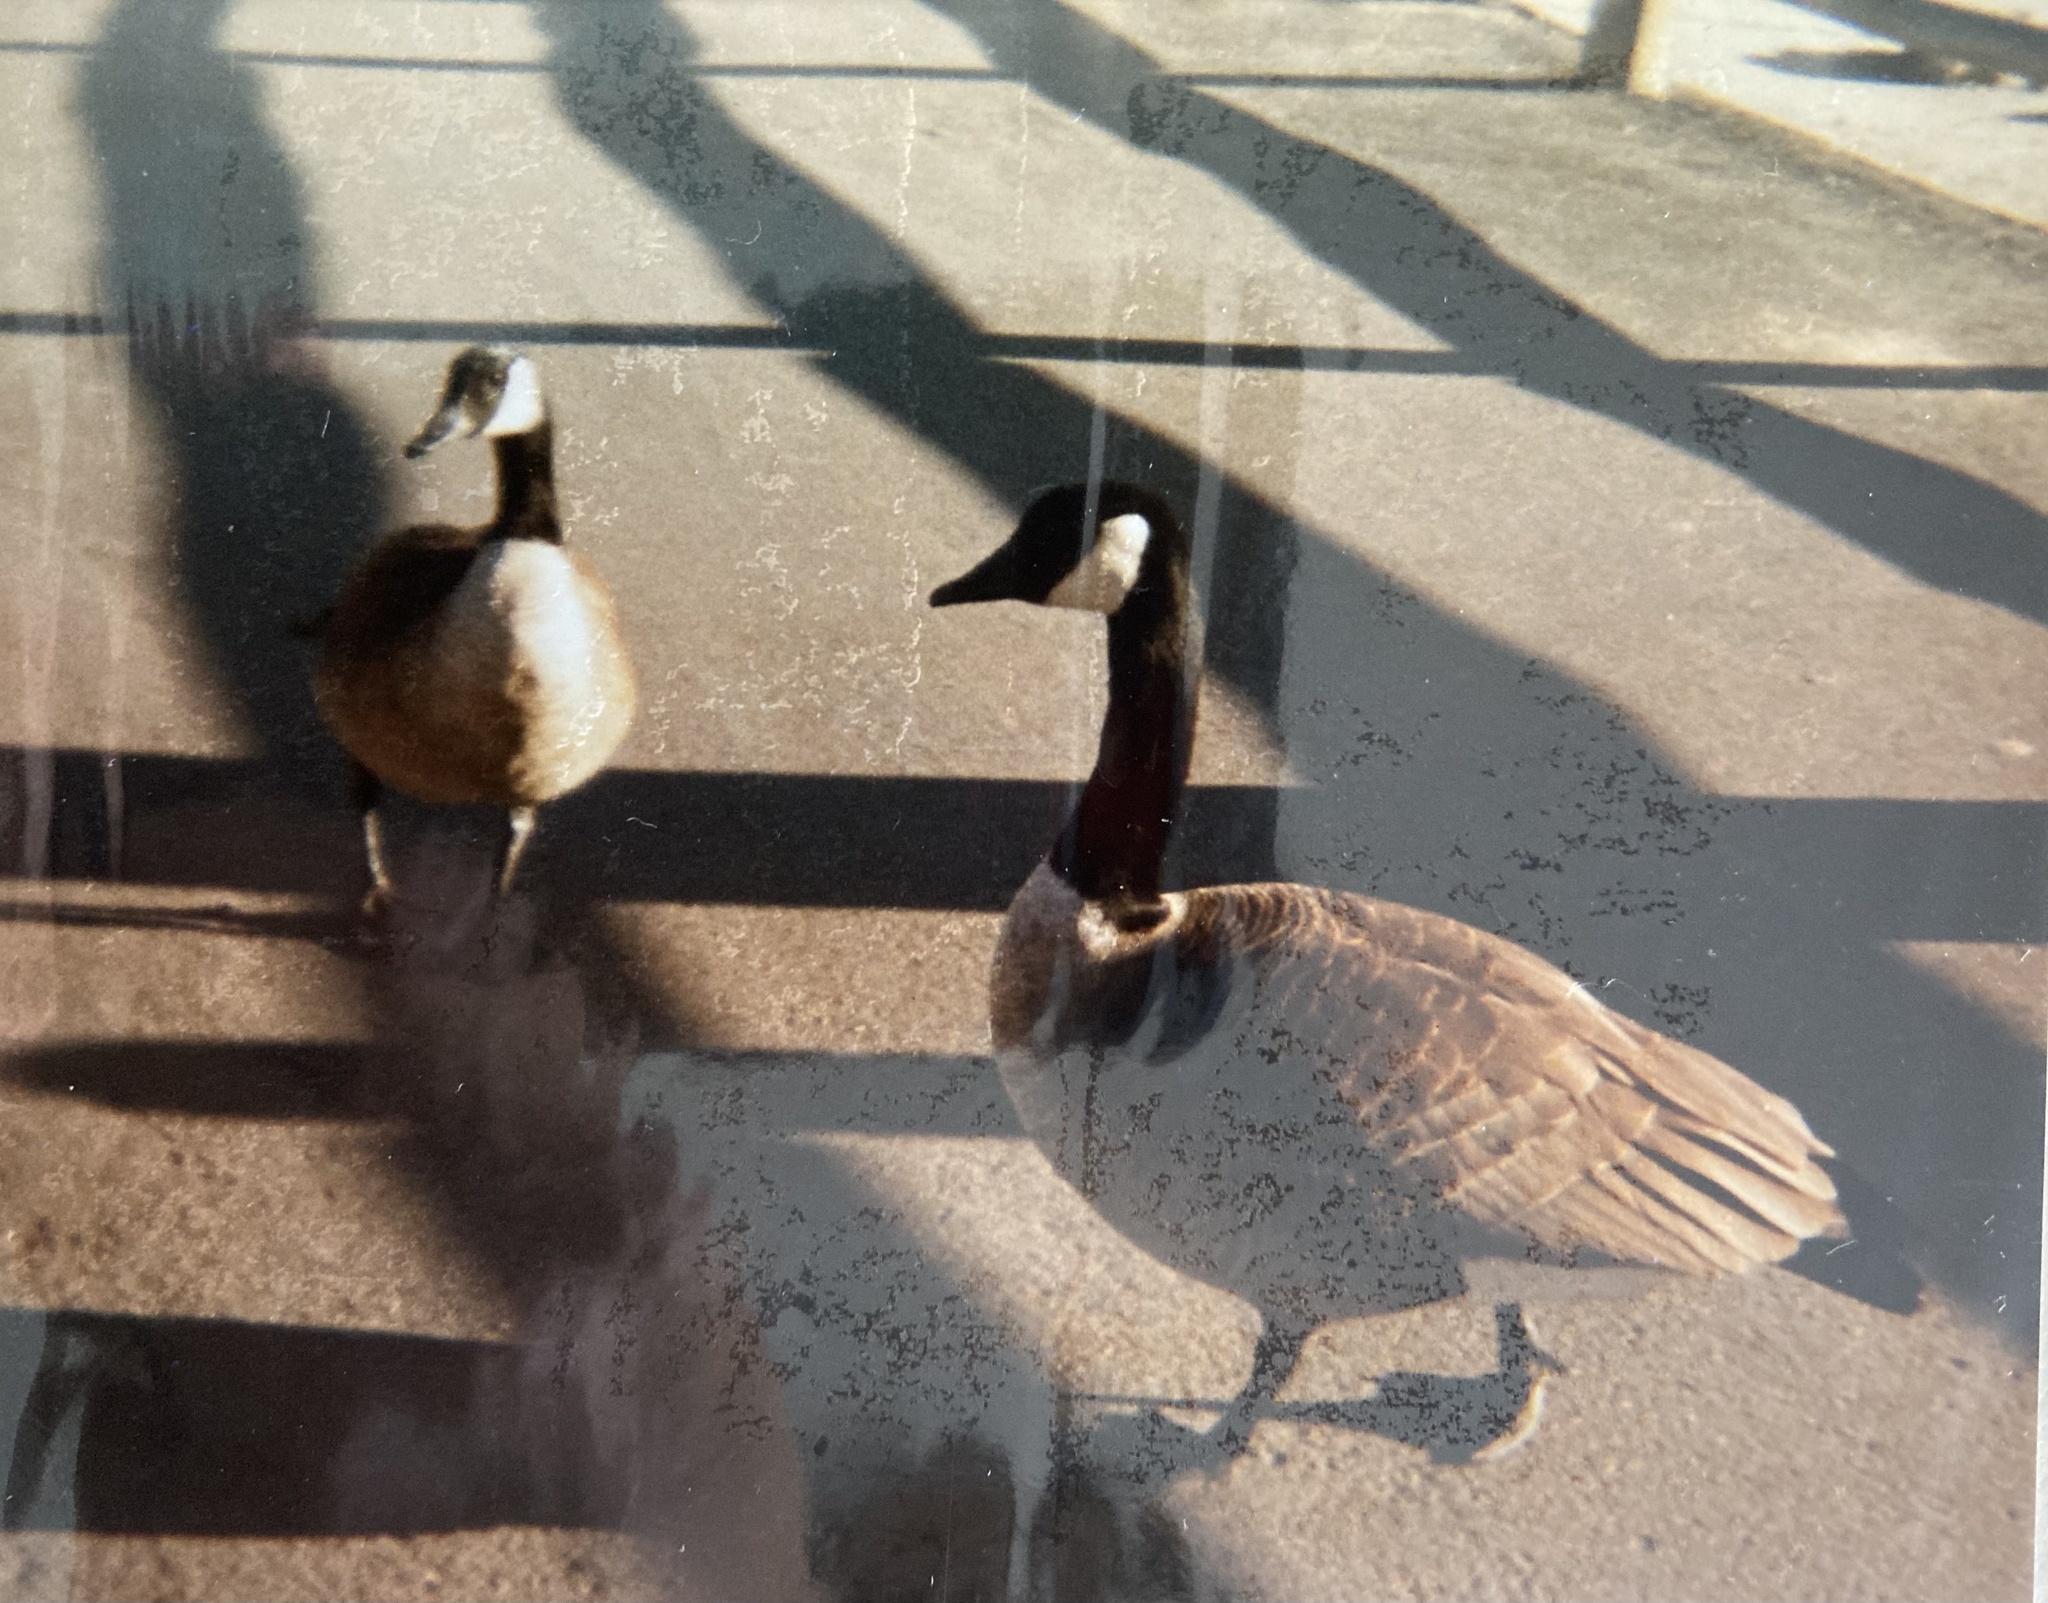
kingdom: Animalia
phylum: Chordata
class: Aves
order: Anseriformes
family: Anatidae
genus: Branta
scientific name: Branta canadensis
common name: Canada goose
